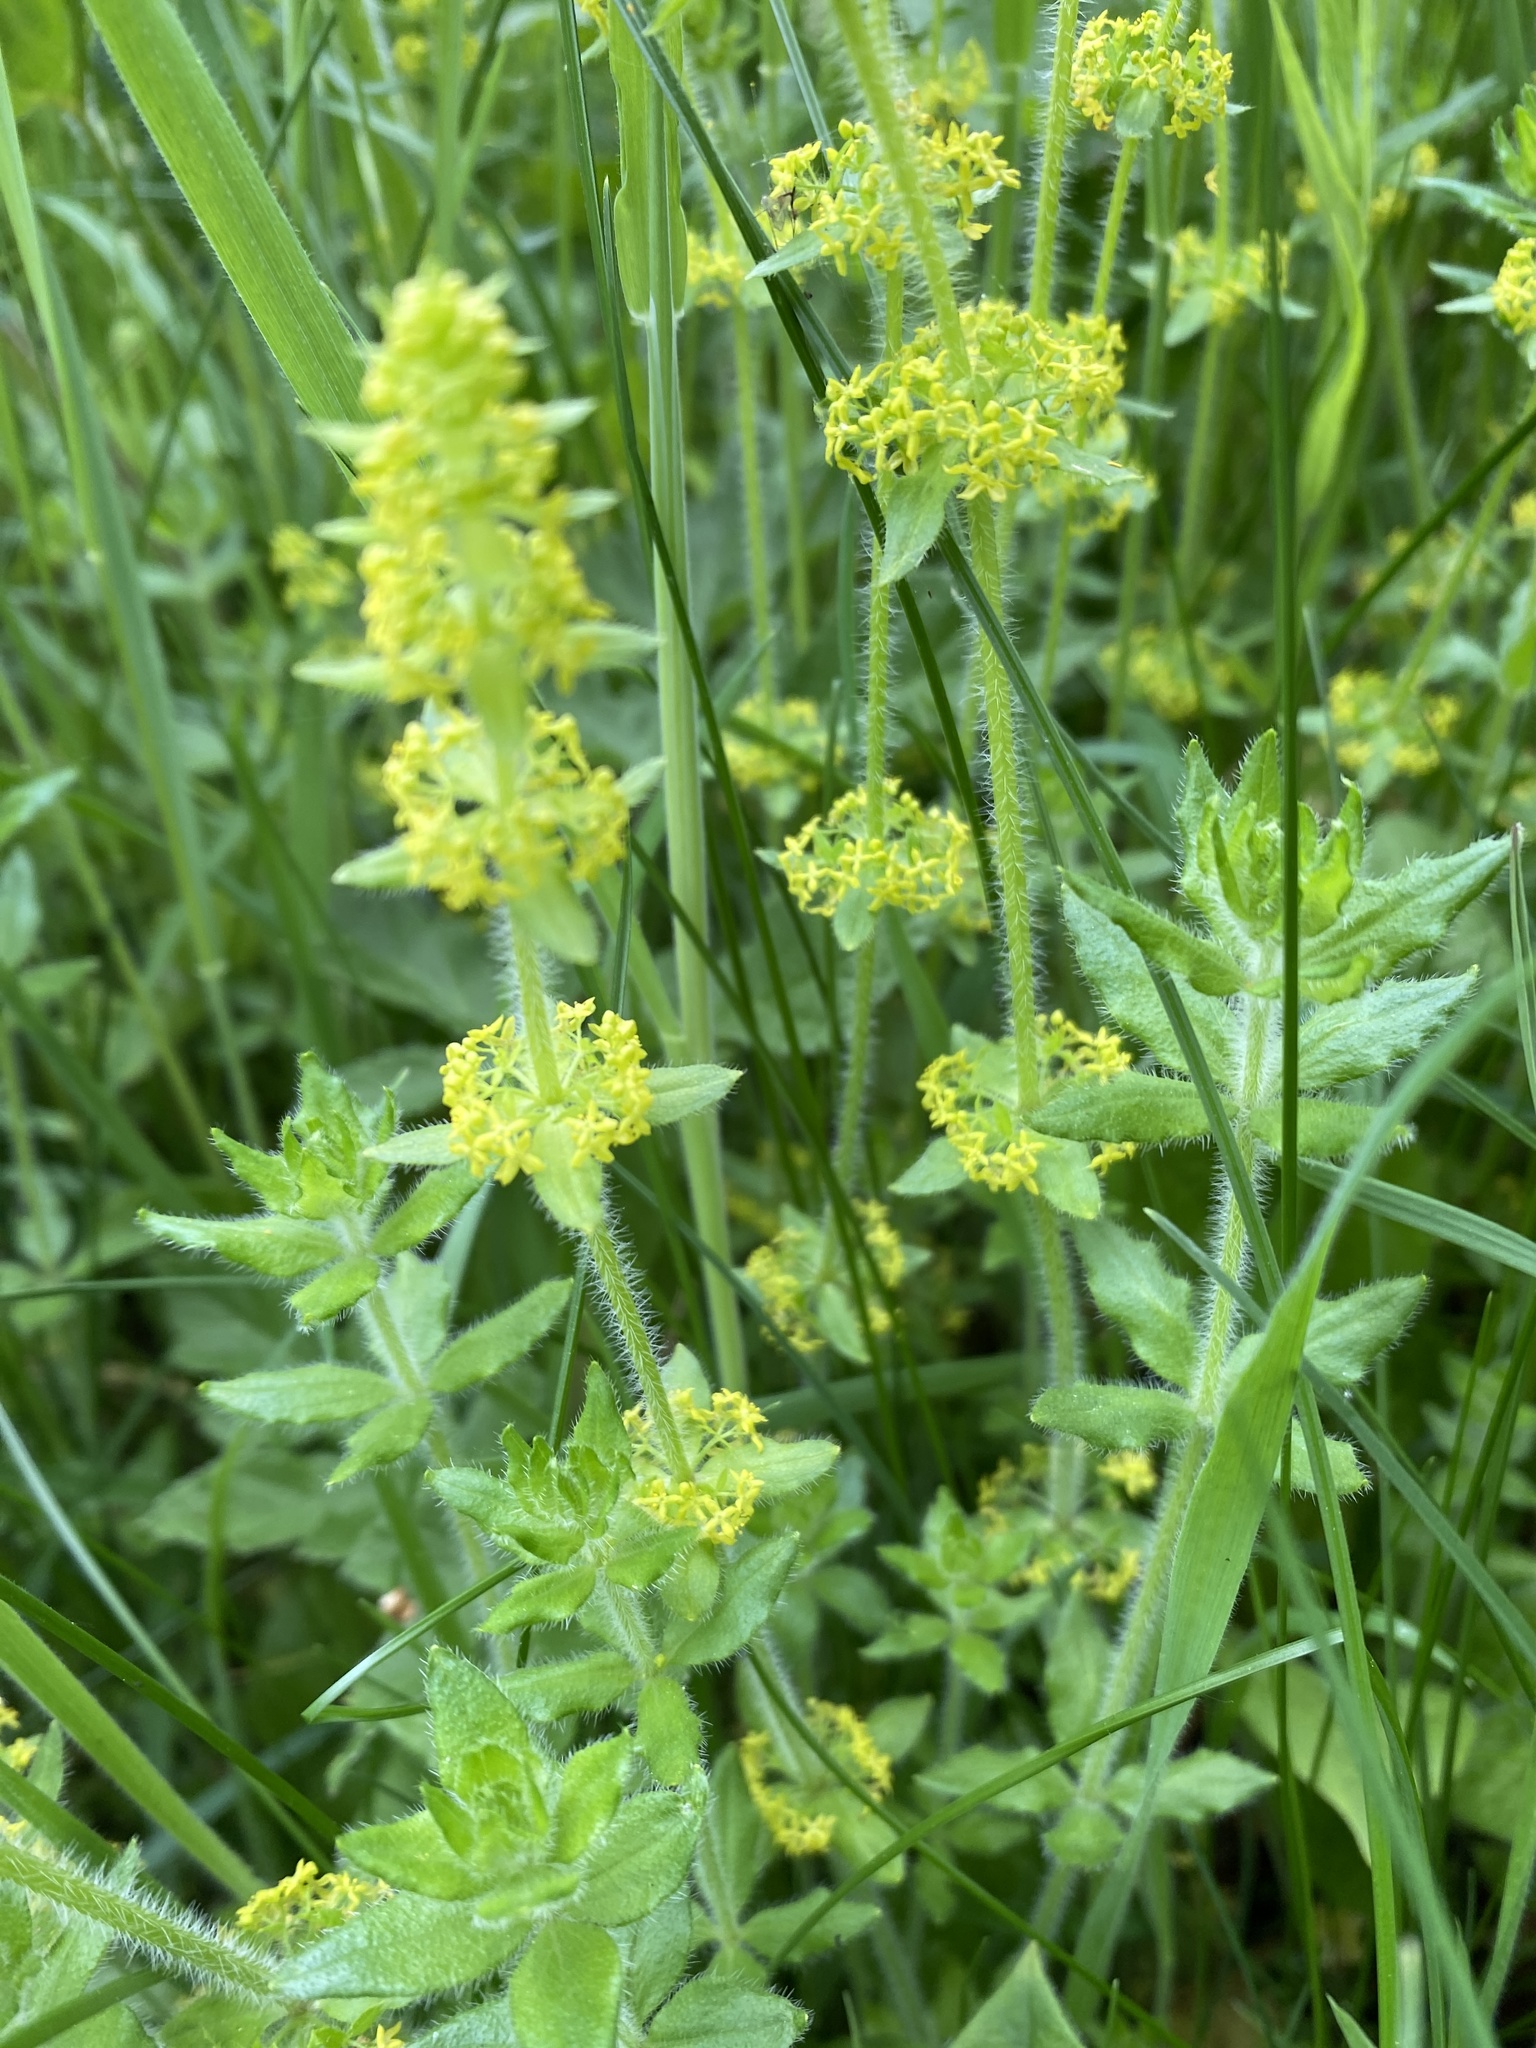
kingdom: Plantae
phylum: Tracheophyta
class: Magnoliopsida
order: Gentianales
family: Rubiaceae
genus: Cruciata
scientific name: Cruciata laevipes
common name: Crosswort
